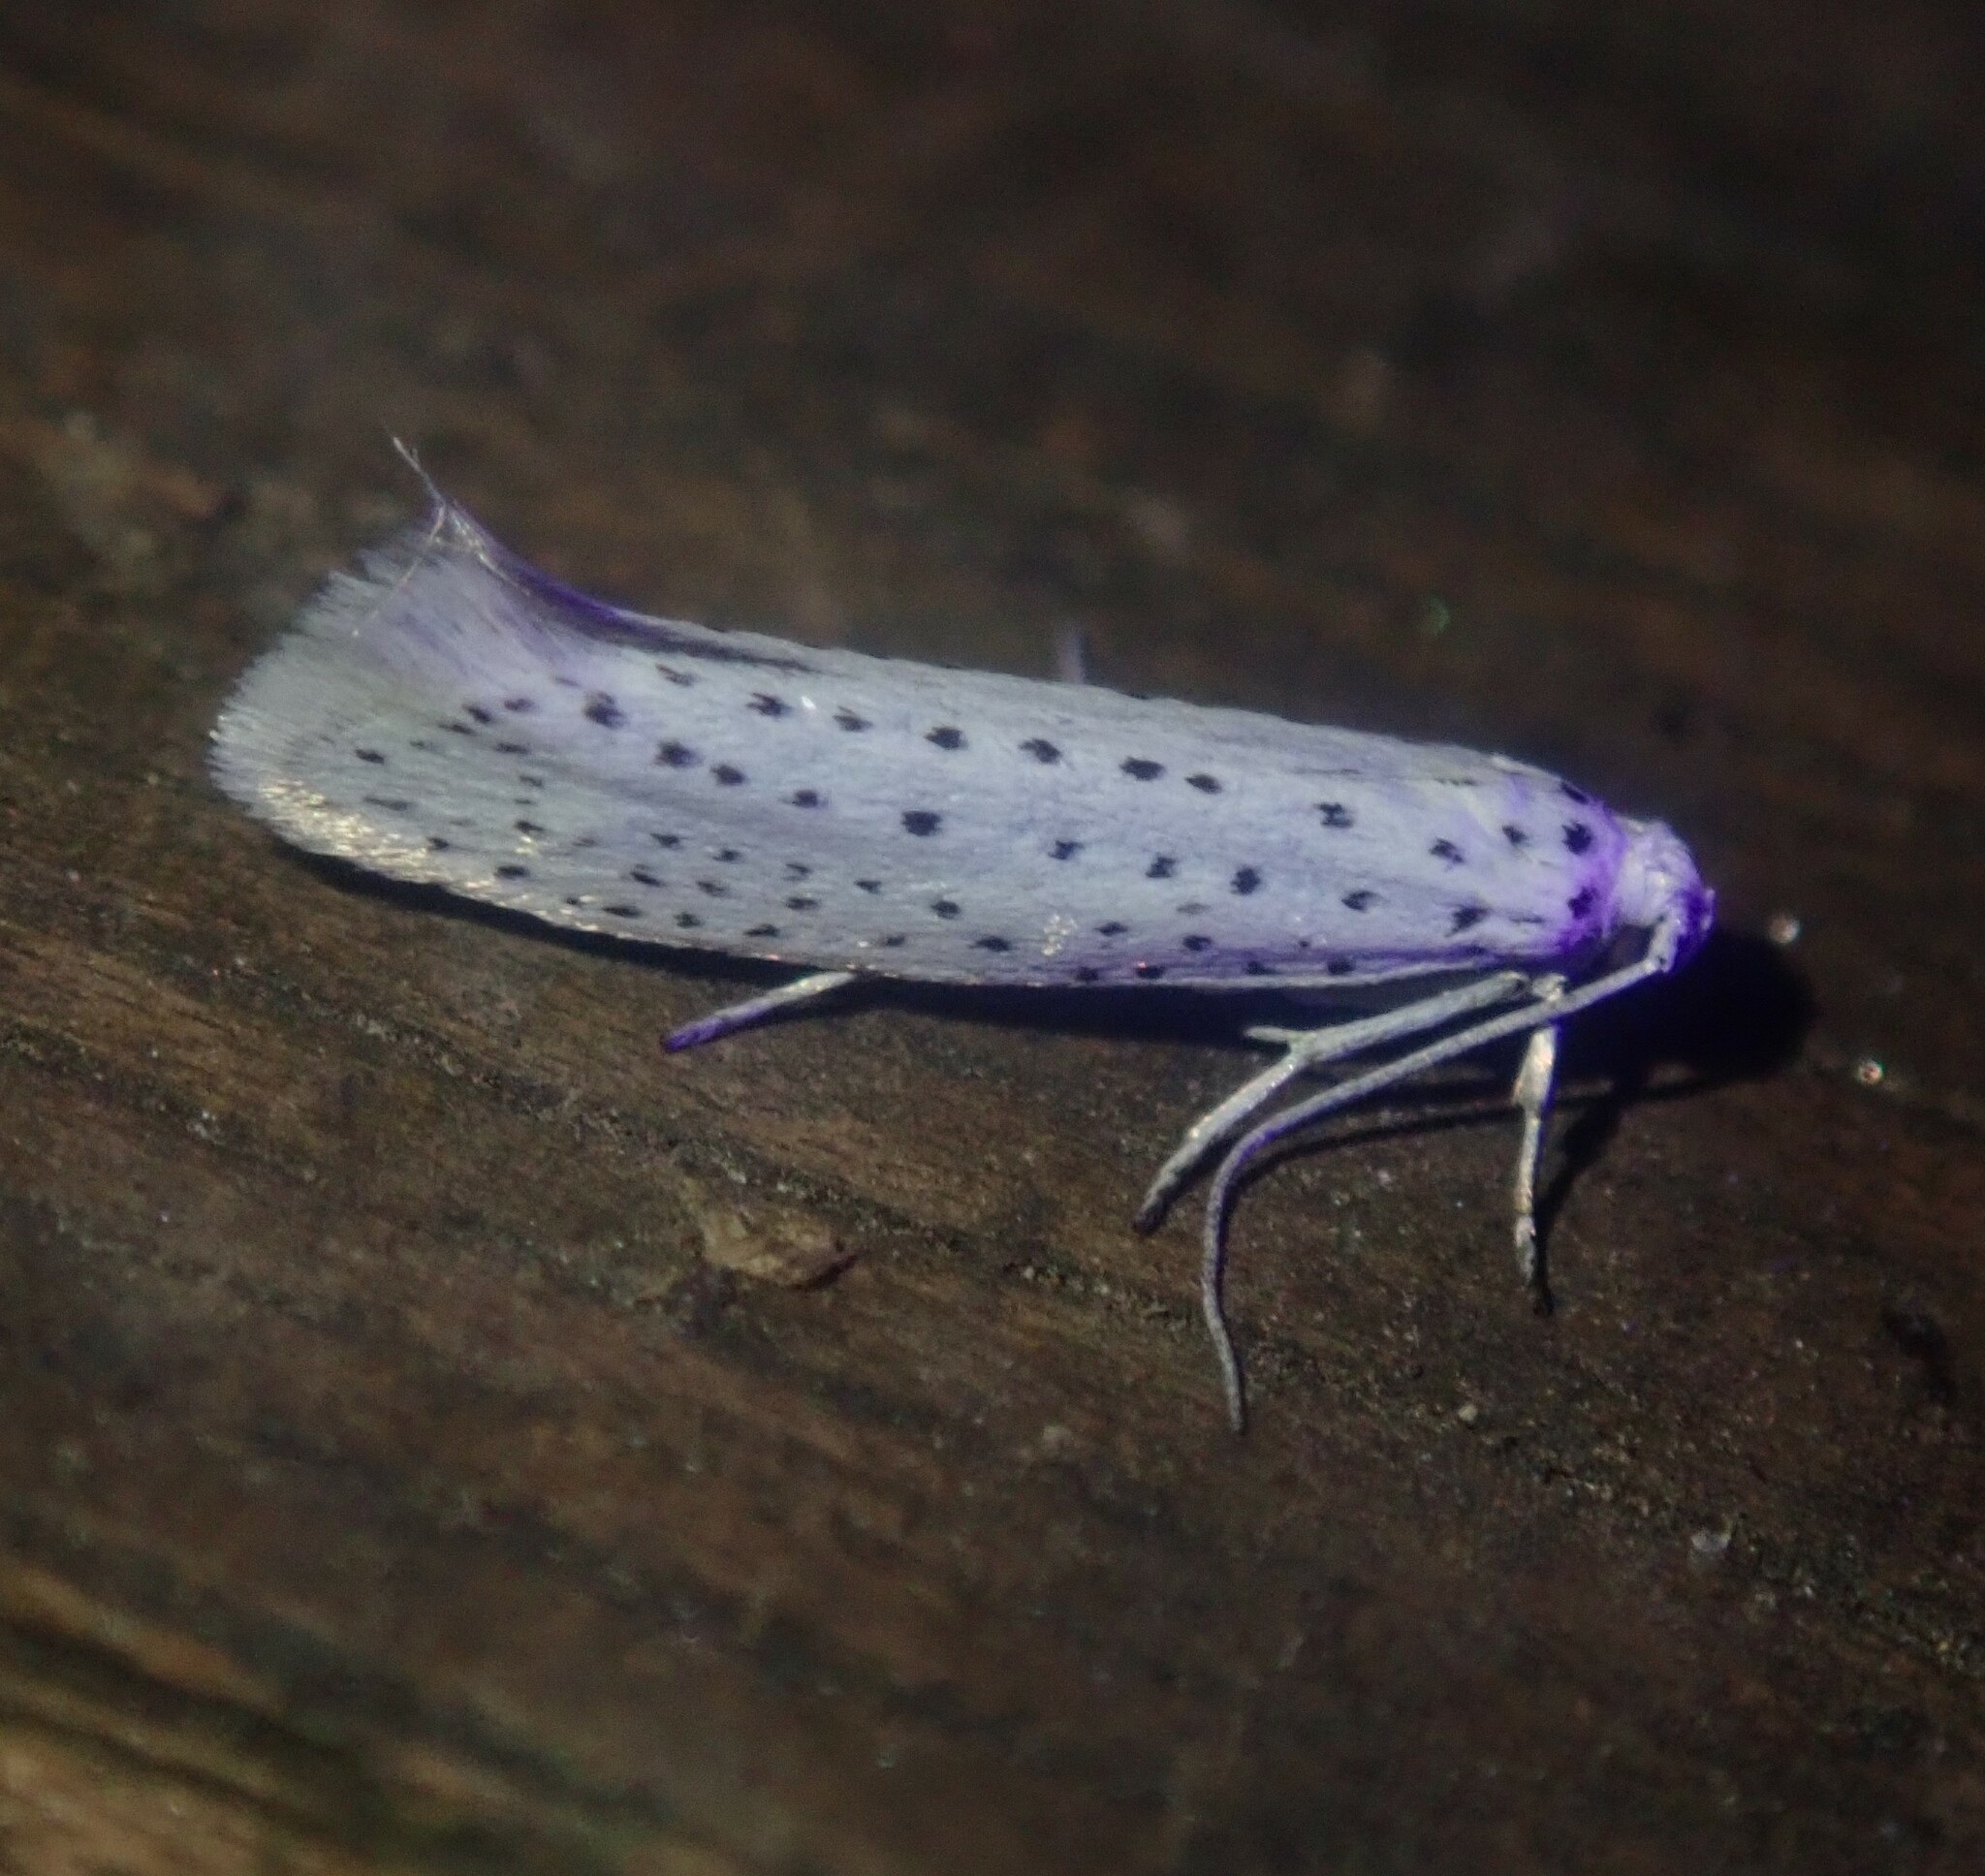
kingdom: Animalia
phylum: Arthropoda
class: Insecta
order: Lepidoptera
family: Yponomeutidae
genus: Yponomeuta
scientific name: Yponomeuta evonymella
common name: Bird-cherry ermine
